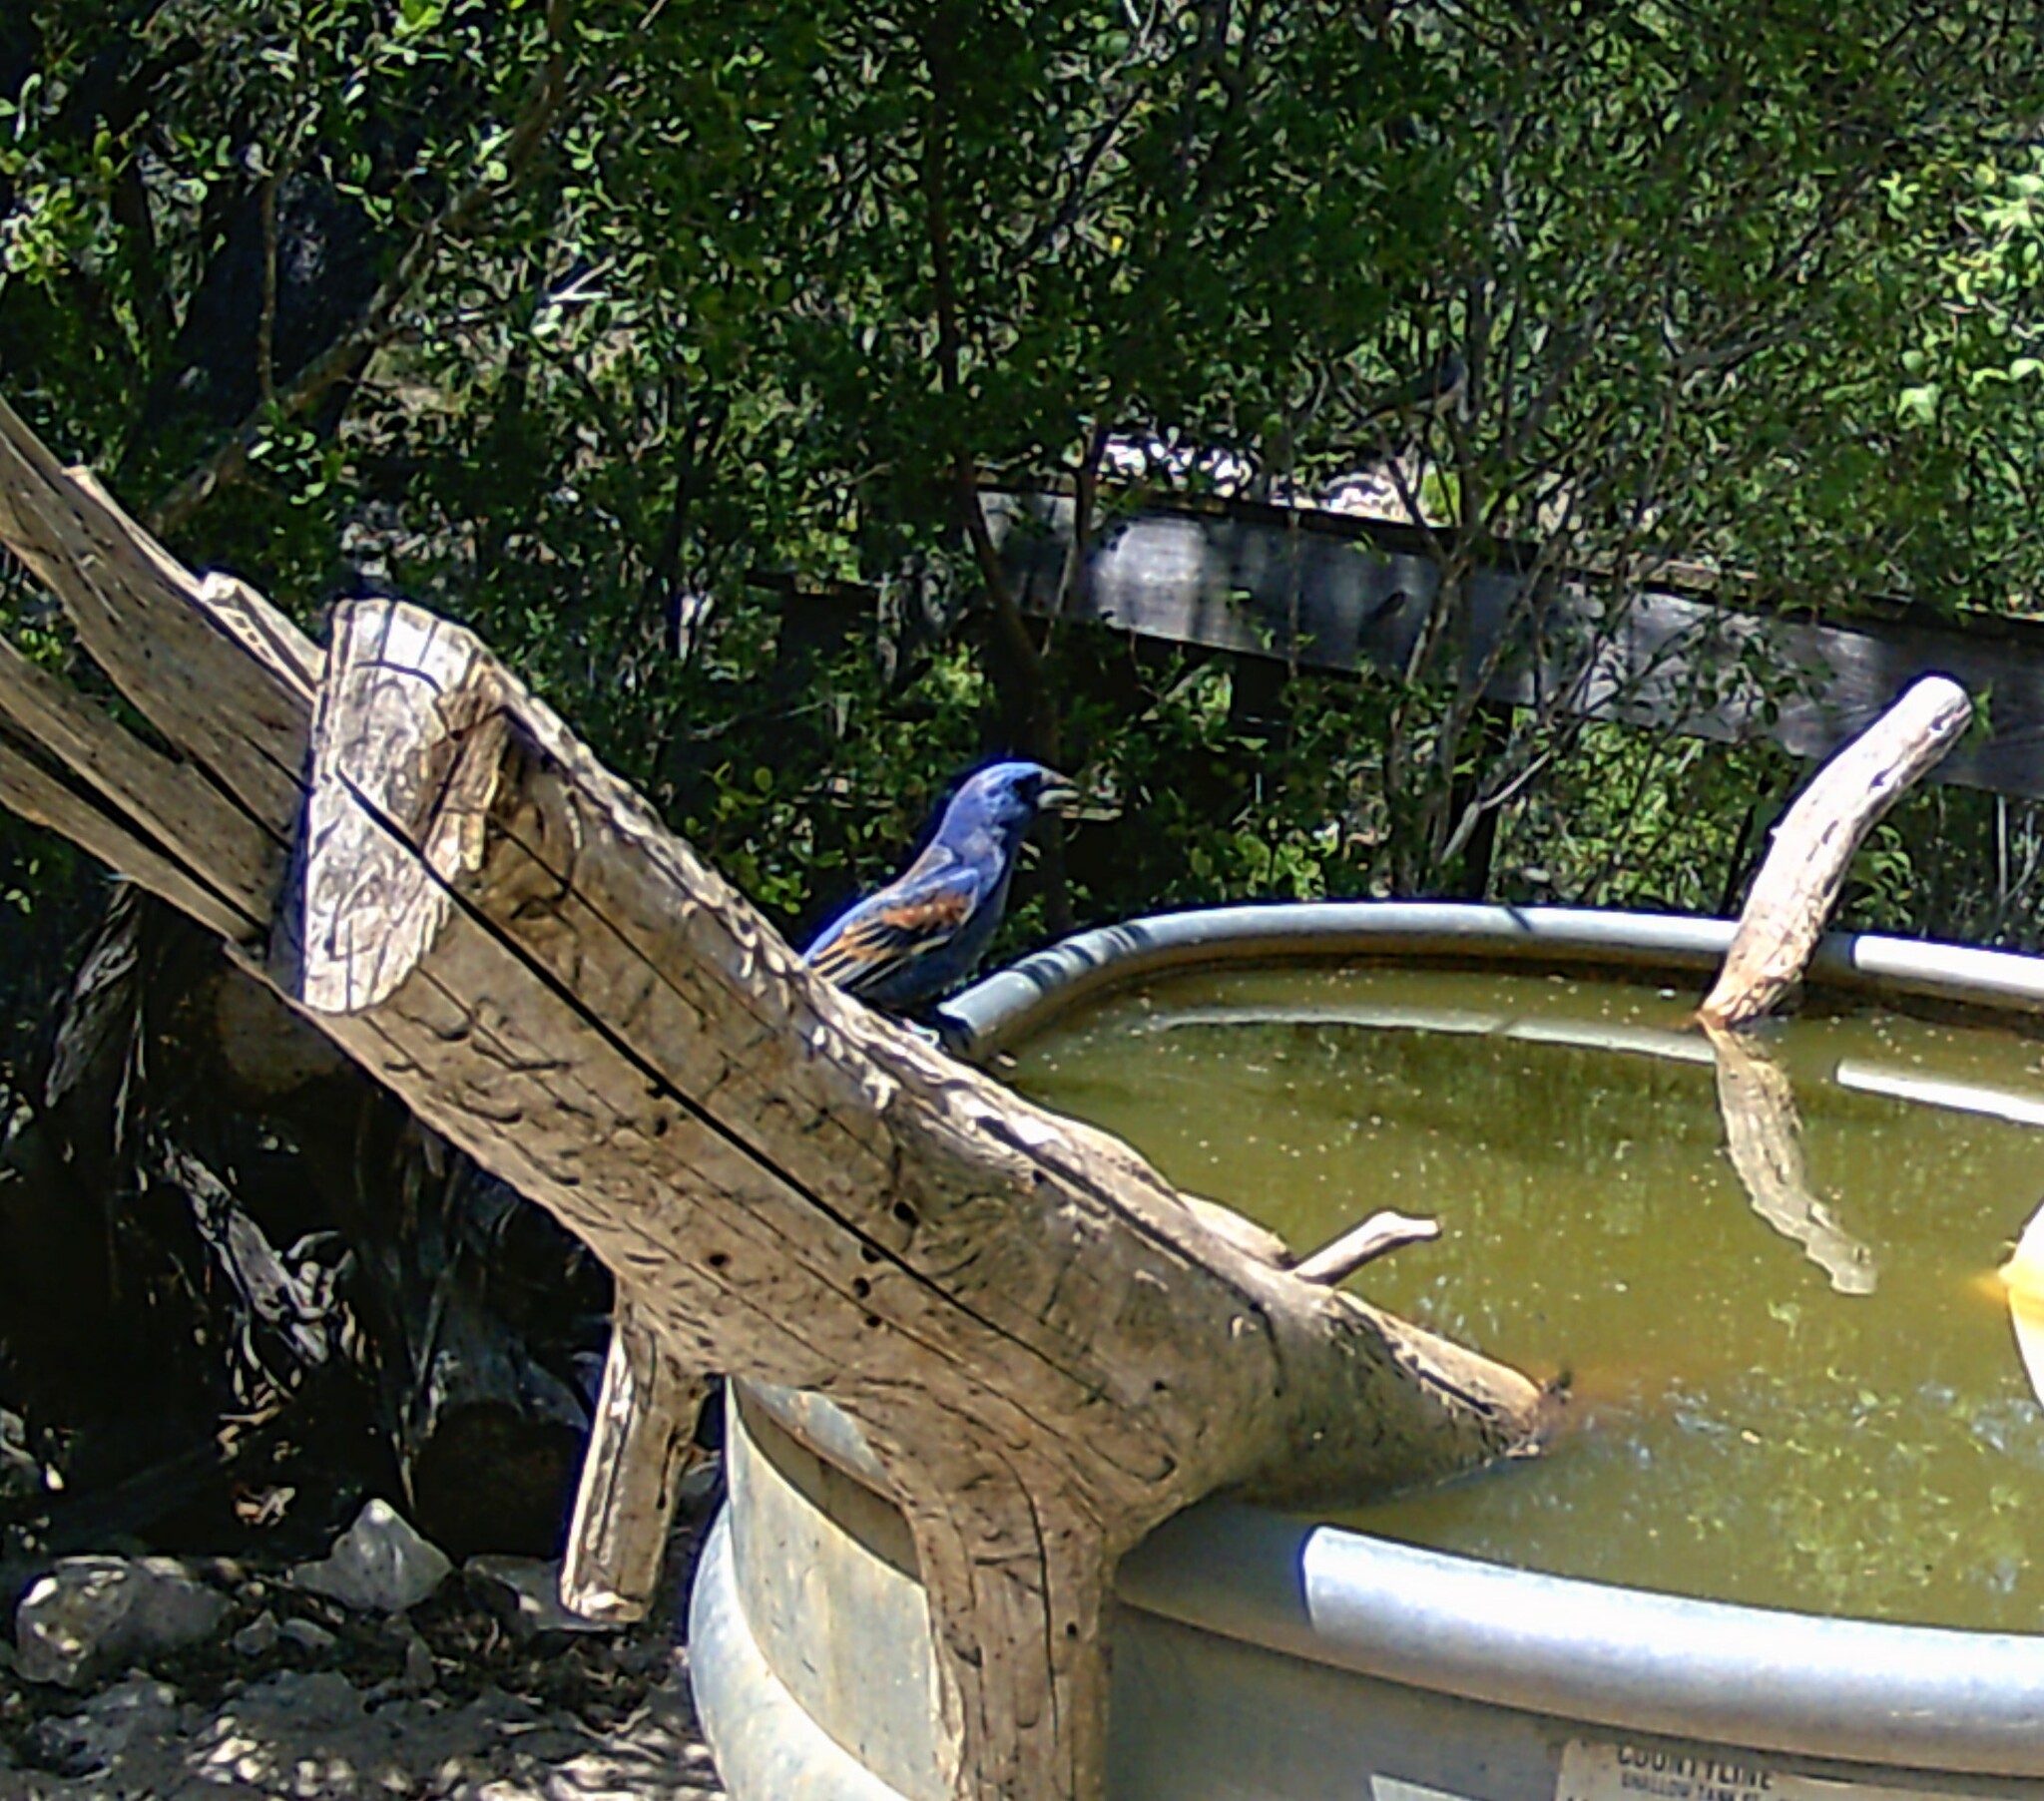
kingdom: Animalia
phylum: Chordata
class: Aves
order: Passeriformes
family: Cardinalidae
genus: Passerina
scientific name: Passerina caerulea
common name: Blue grosbeak
